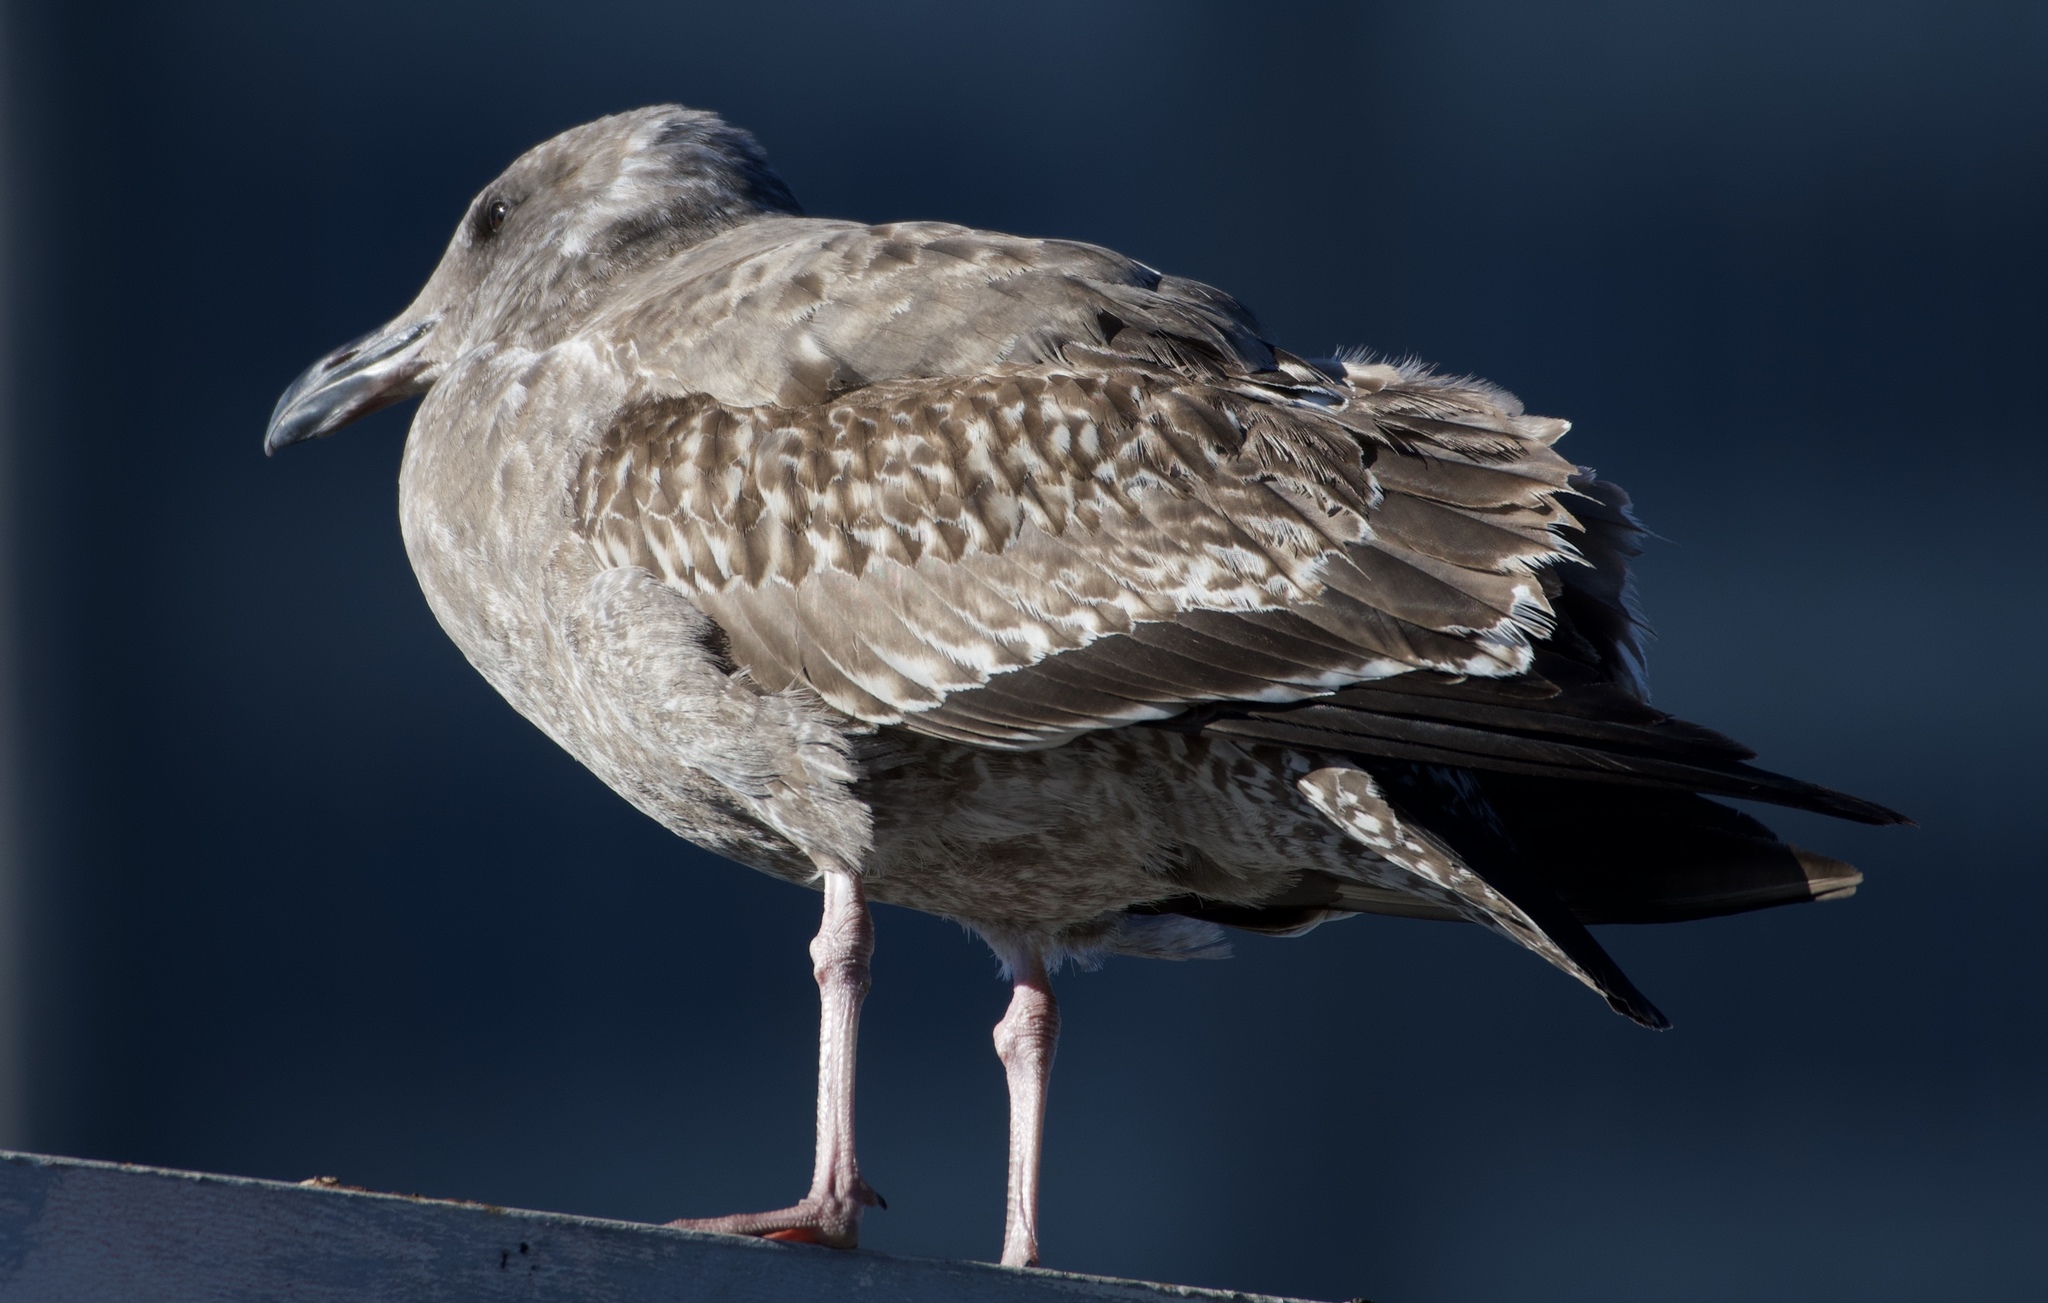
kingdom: Animalia
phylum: Chordata
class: Aves
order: Charadriiformes
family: Laridae
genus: Larus
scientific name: Larus occidentalis
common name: Western gull
